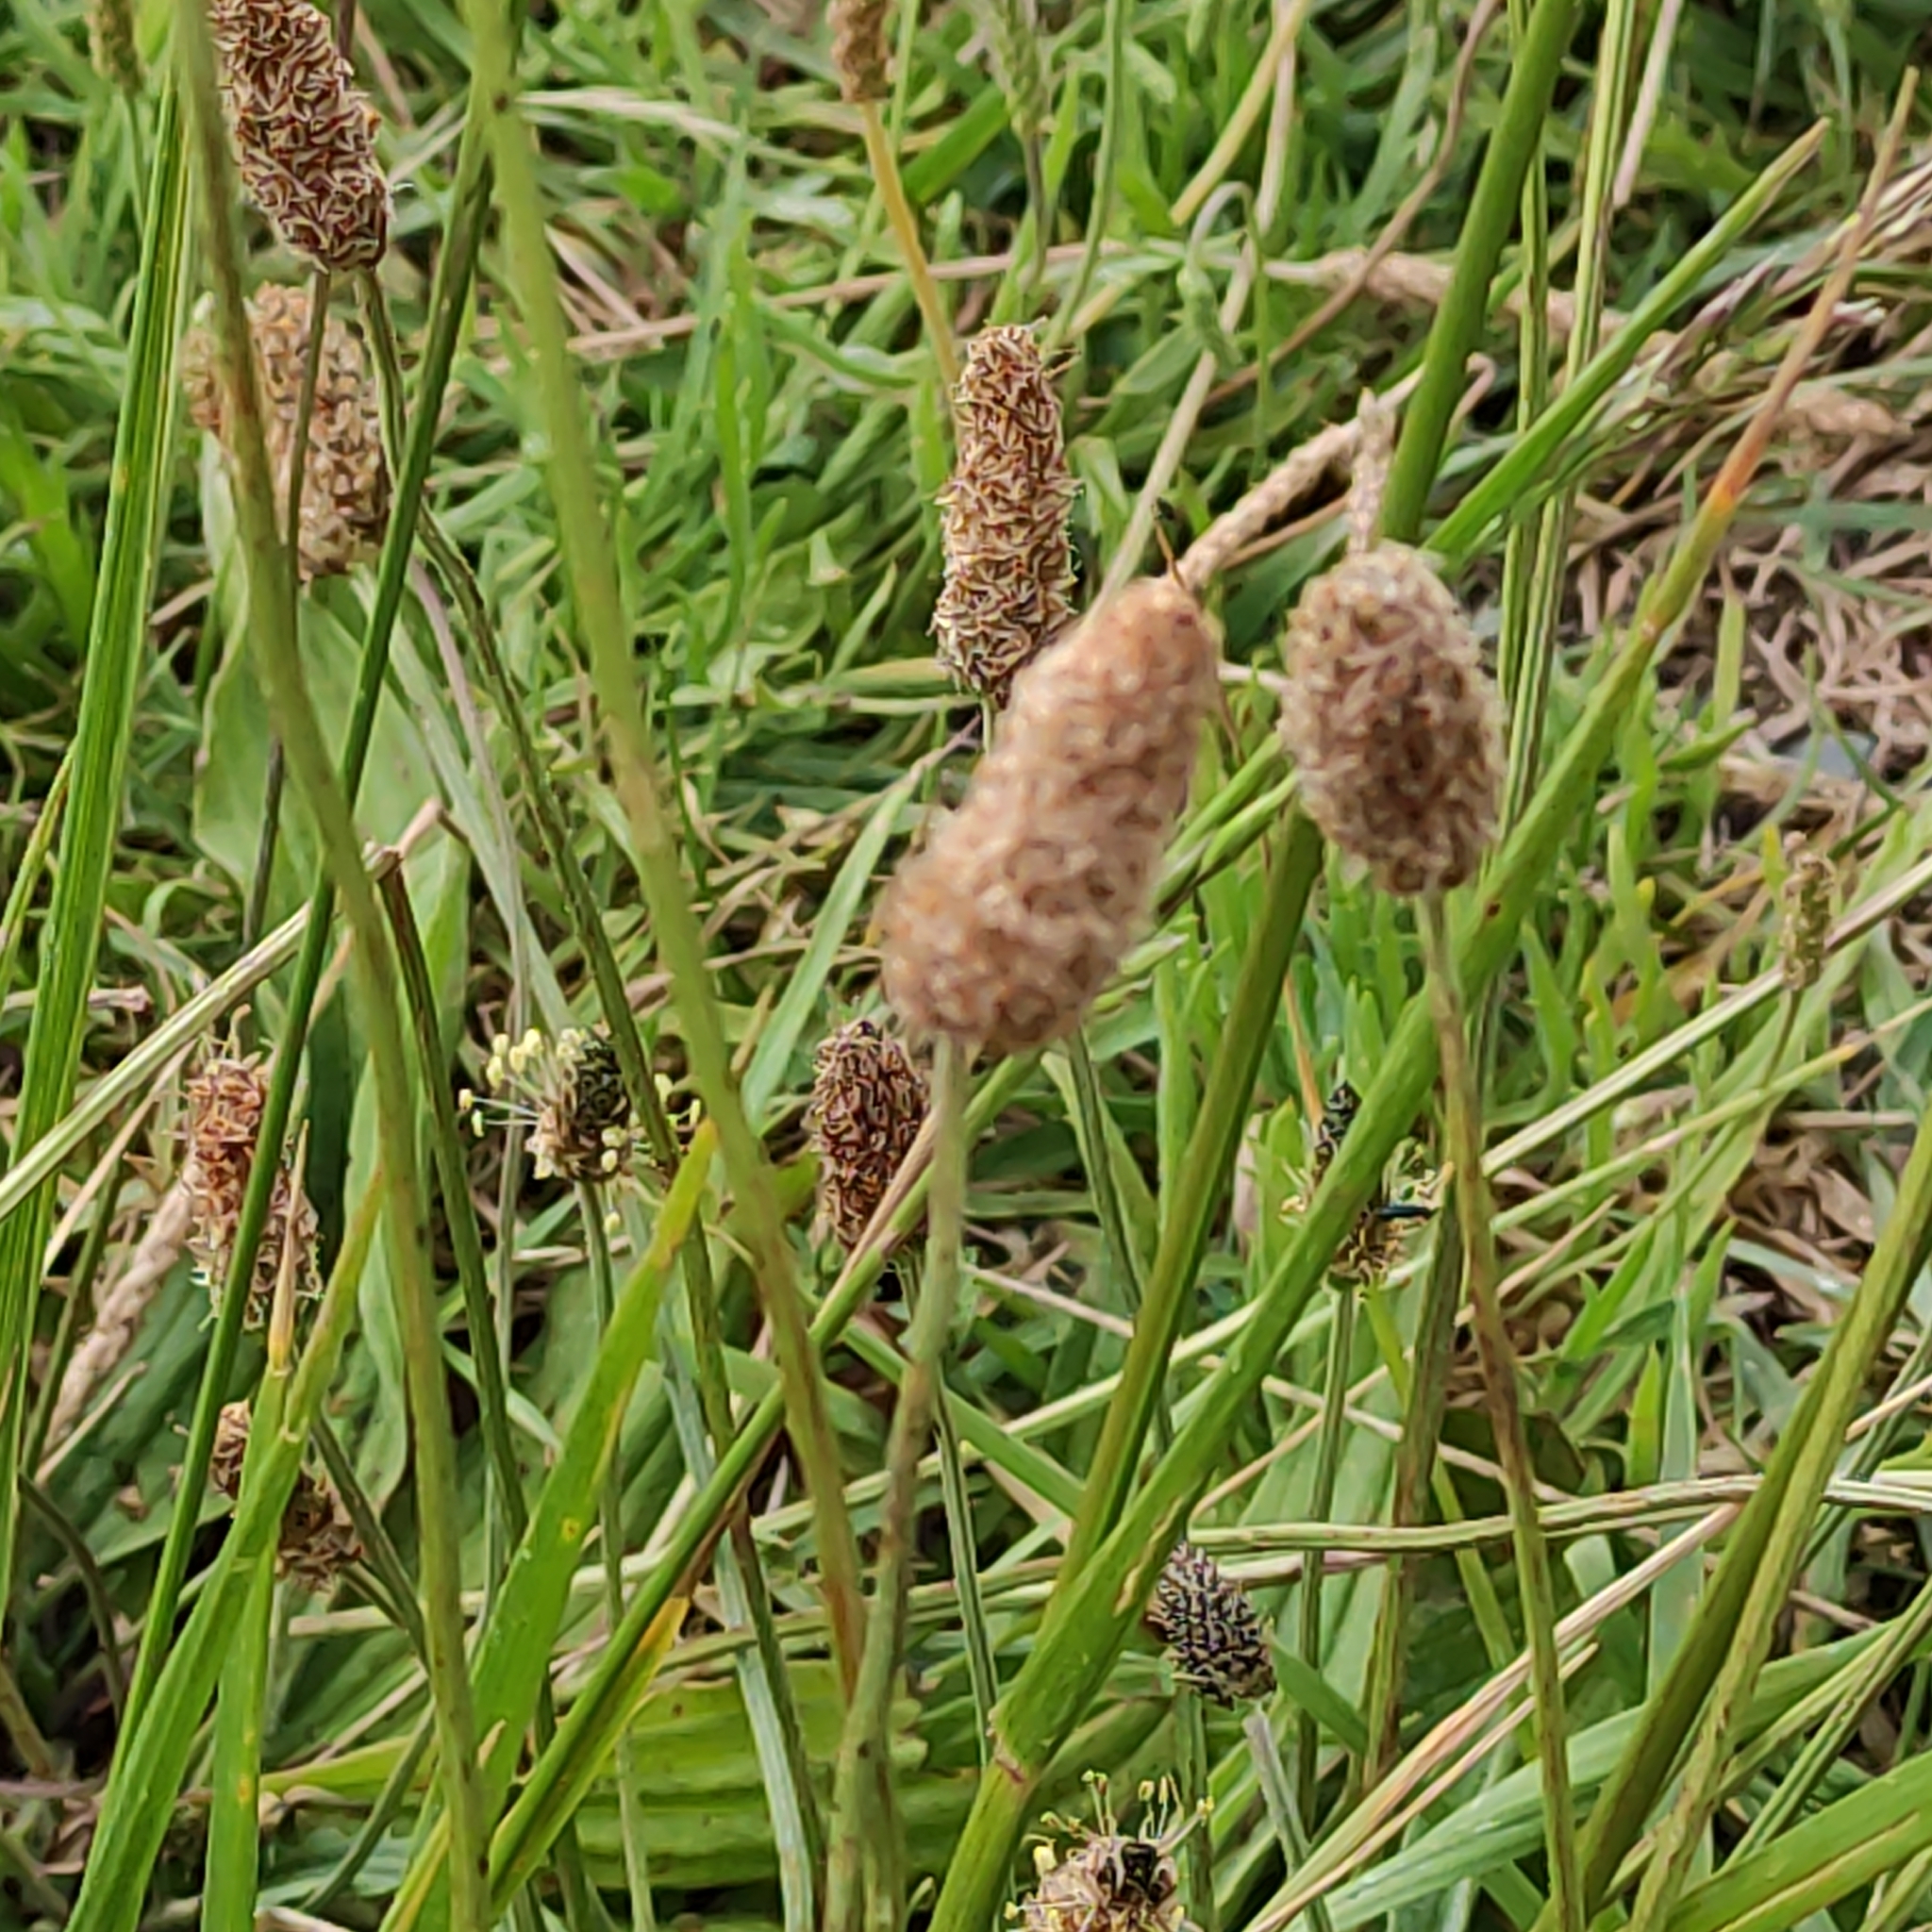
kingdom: Plantae
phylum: Tracheophyta
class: Magnoliopsida
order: Lamiales
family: Plantaginaceae
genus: Plantago
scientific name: Plantago lanceolata
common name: Ribwort plantain
